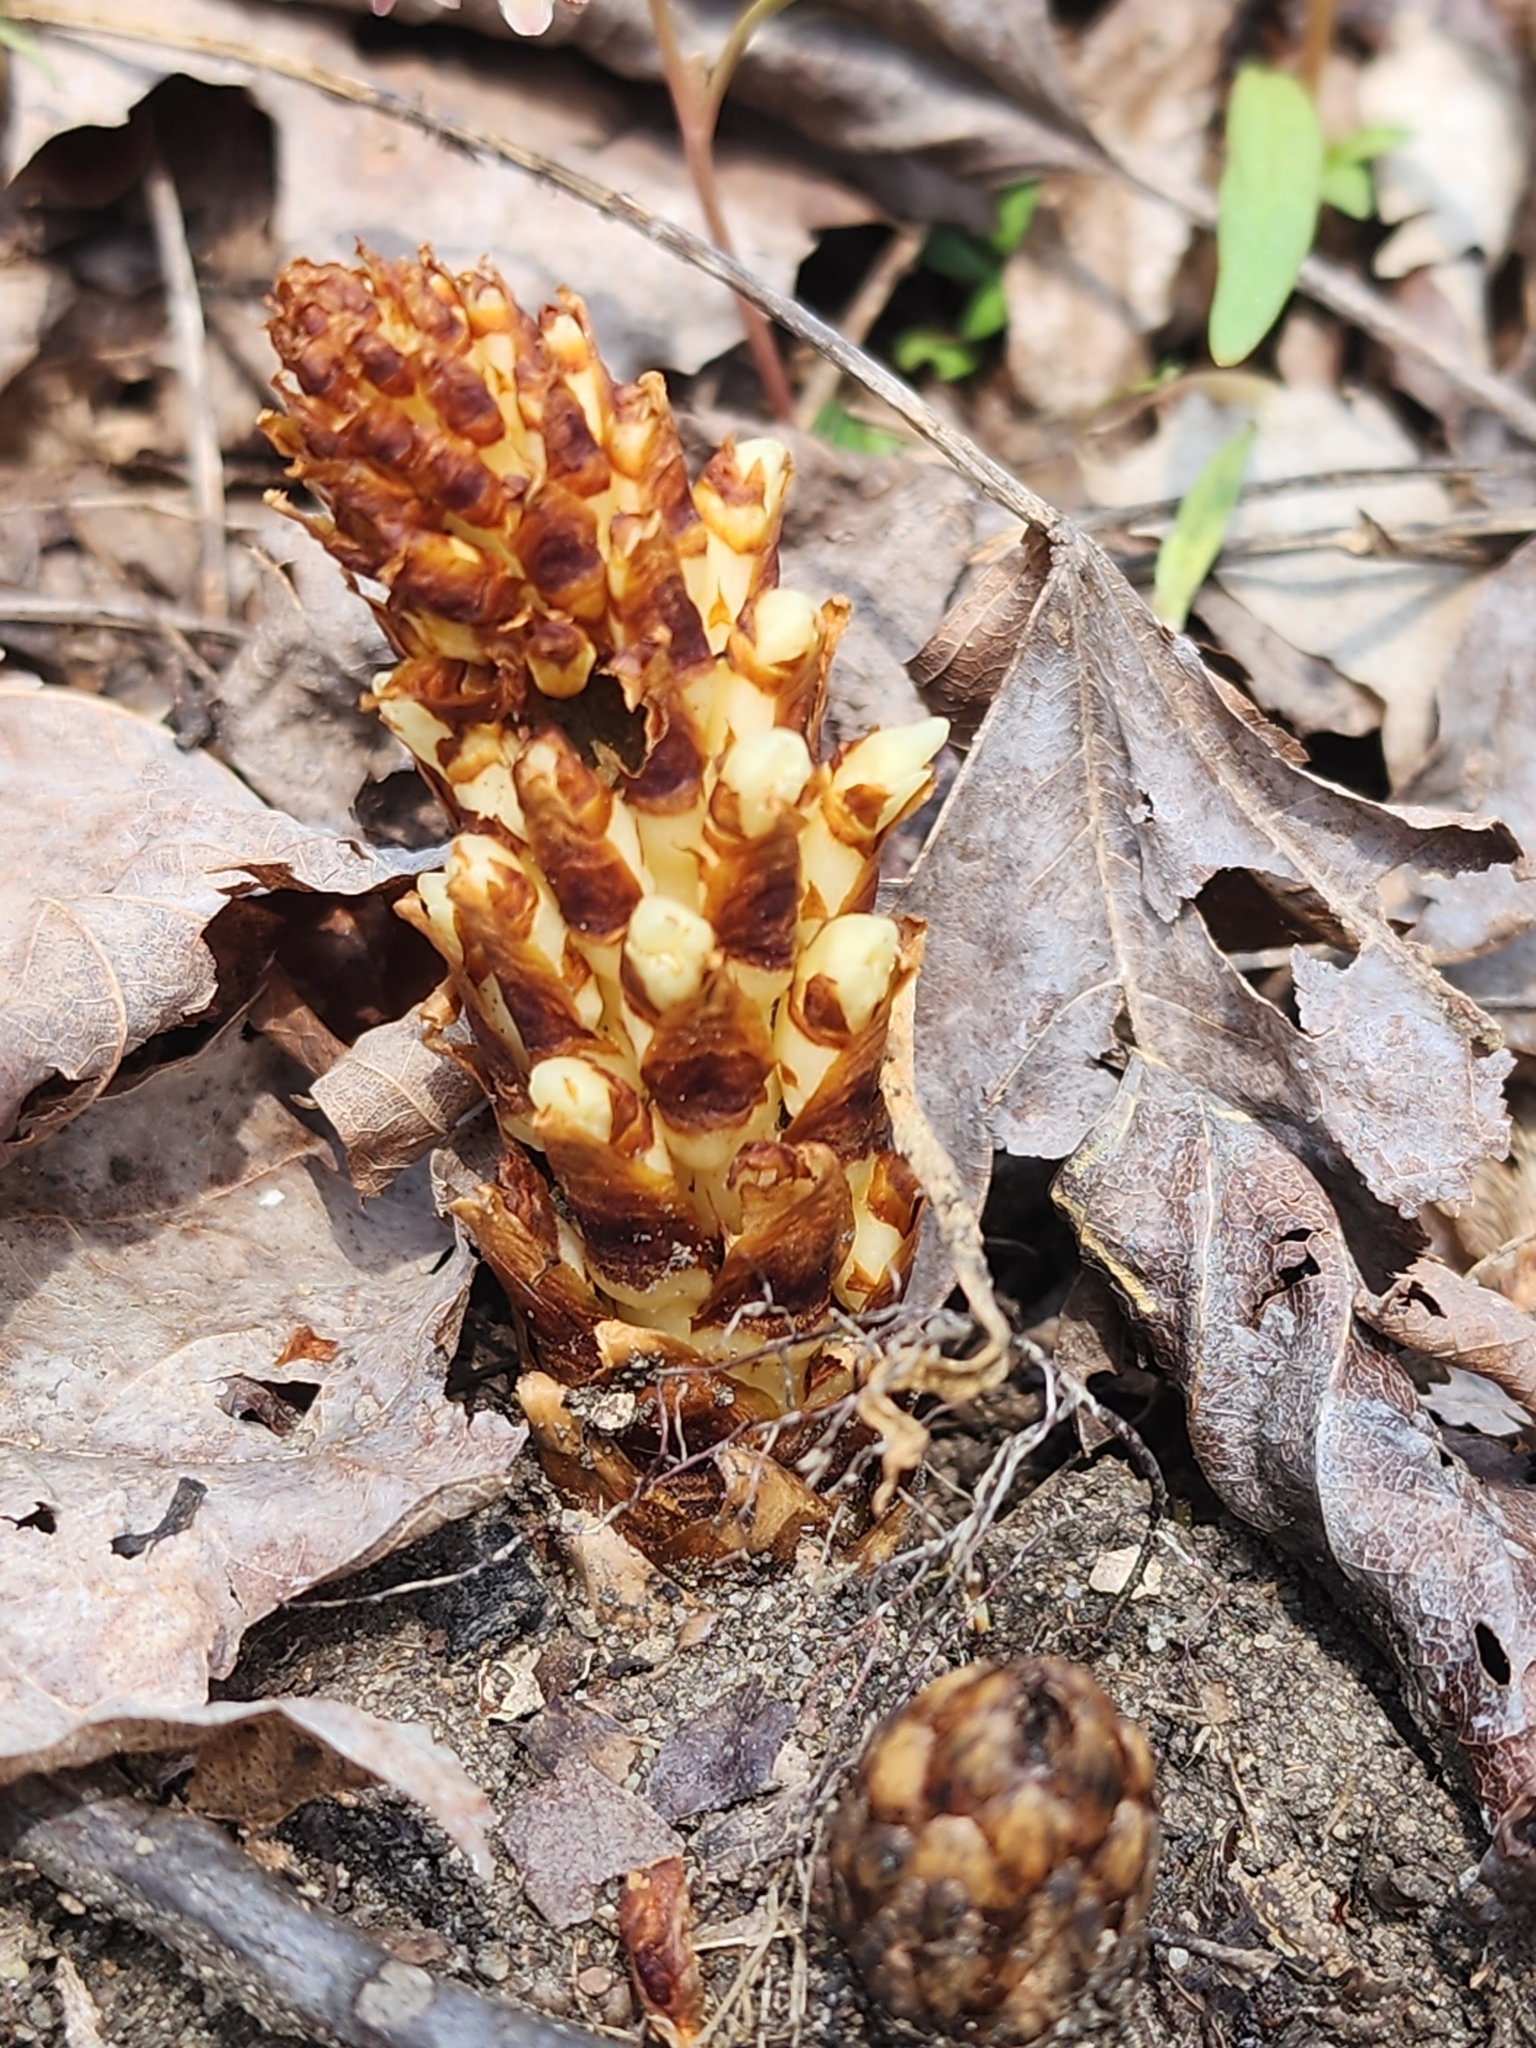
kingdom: Plantae
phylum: Tracheophyta
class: Magnoliopsida
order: Lamiales
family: Orobanchaceae
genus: Conopholis
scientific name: Conopholis americana
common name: American cancer-root
